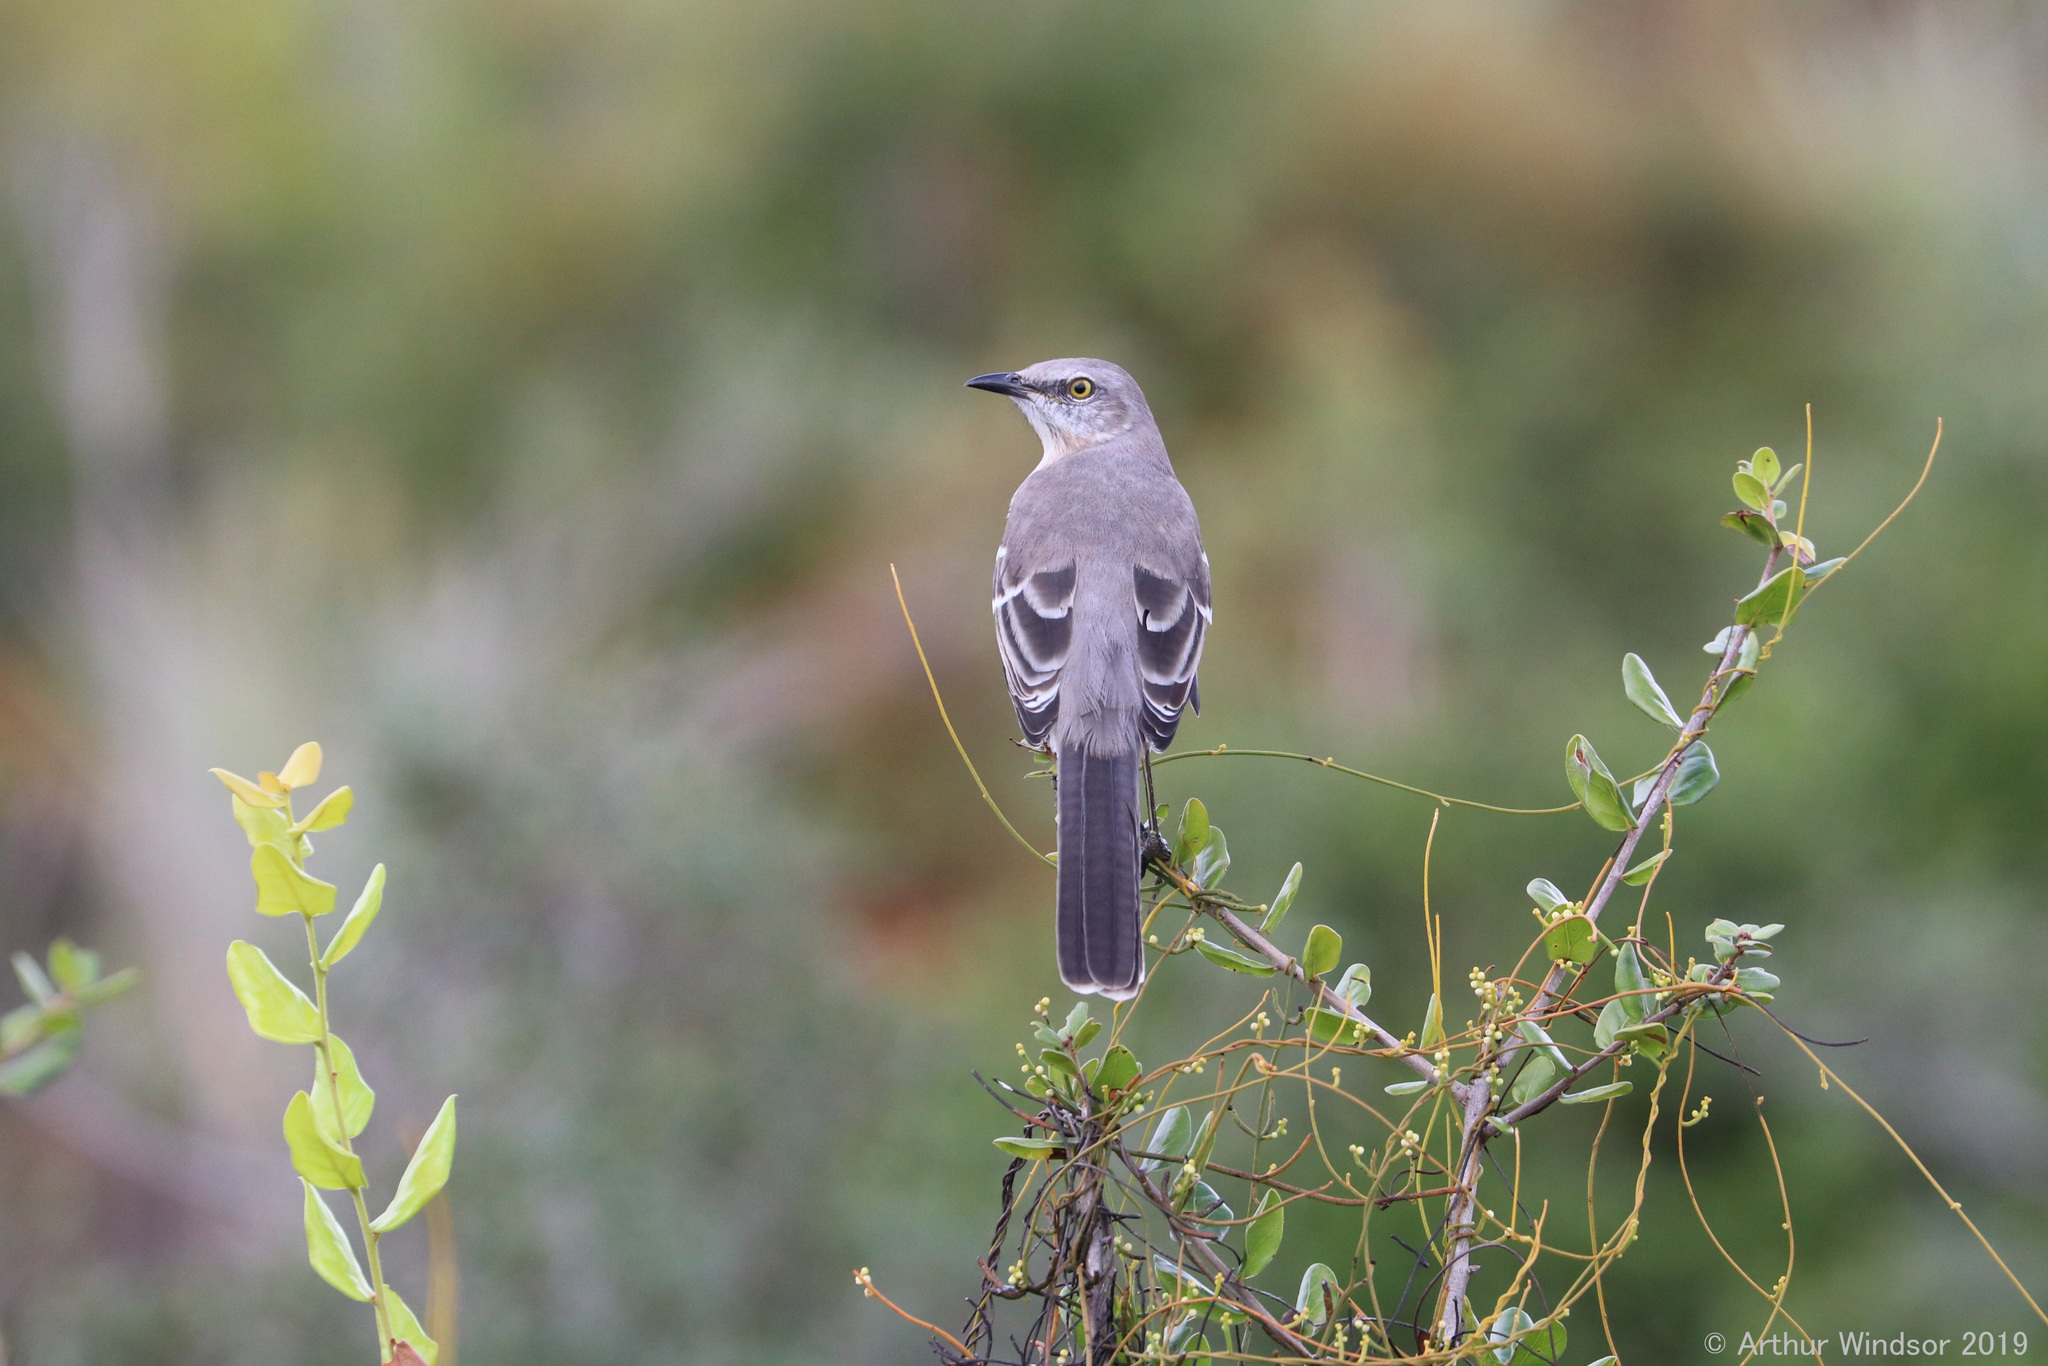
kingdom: Animalia
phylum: Chordata
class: Aves
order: Passeriformes
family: Mimidae
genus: Mimus
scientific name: Mimus polyglottos
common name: Northern mockingbird
